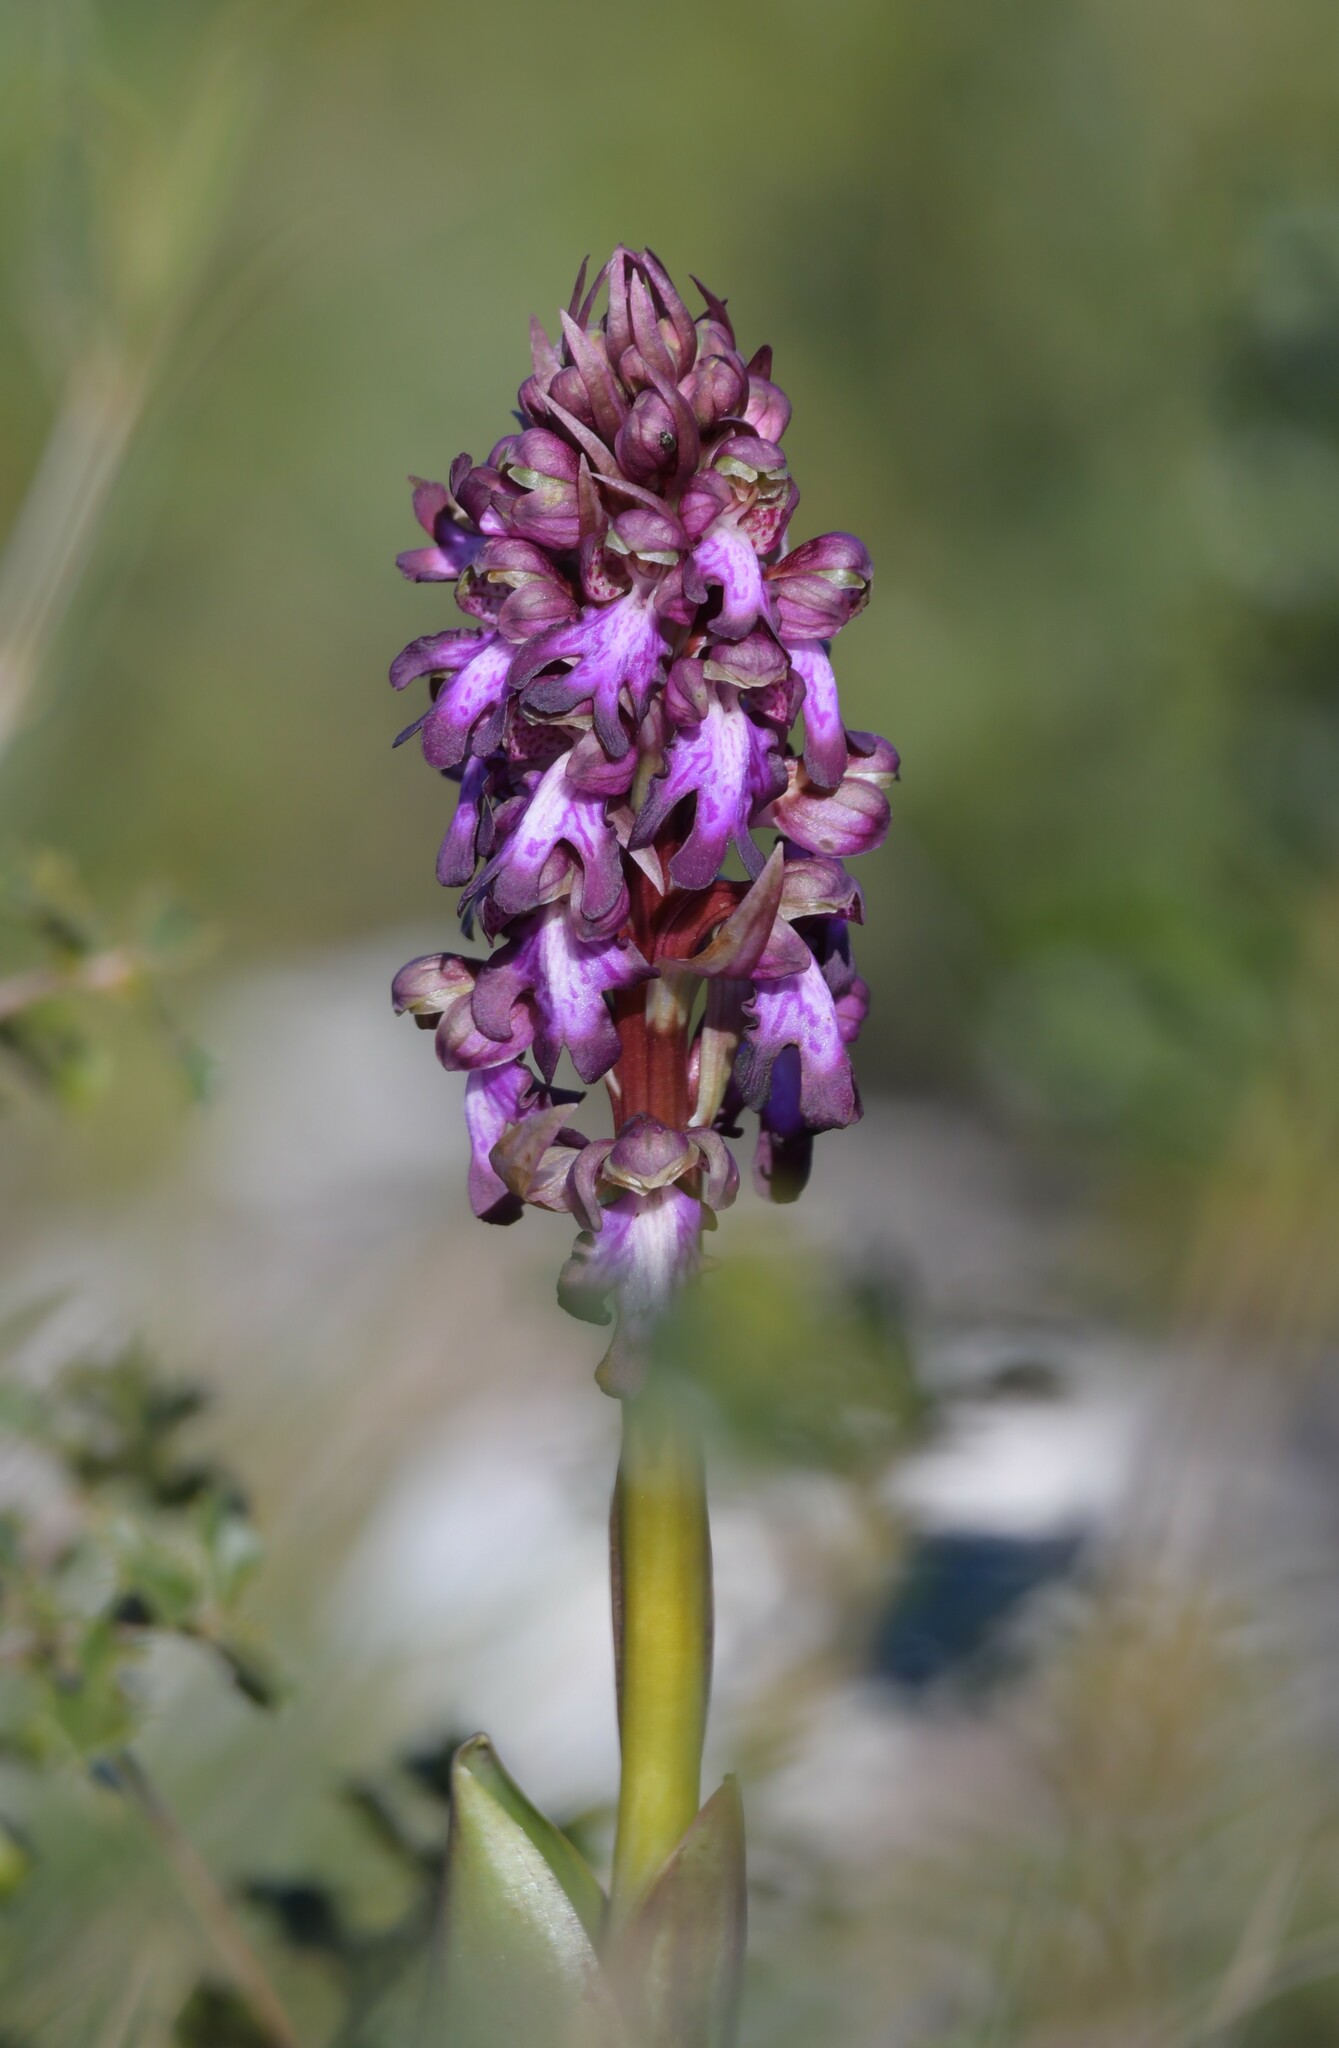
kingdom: Plantae
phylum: Tracheophyta
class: Liliopsida
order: Asparagales
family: Orchidaceae
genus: Himantoglossum
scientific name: Himantoglossum robertianum
